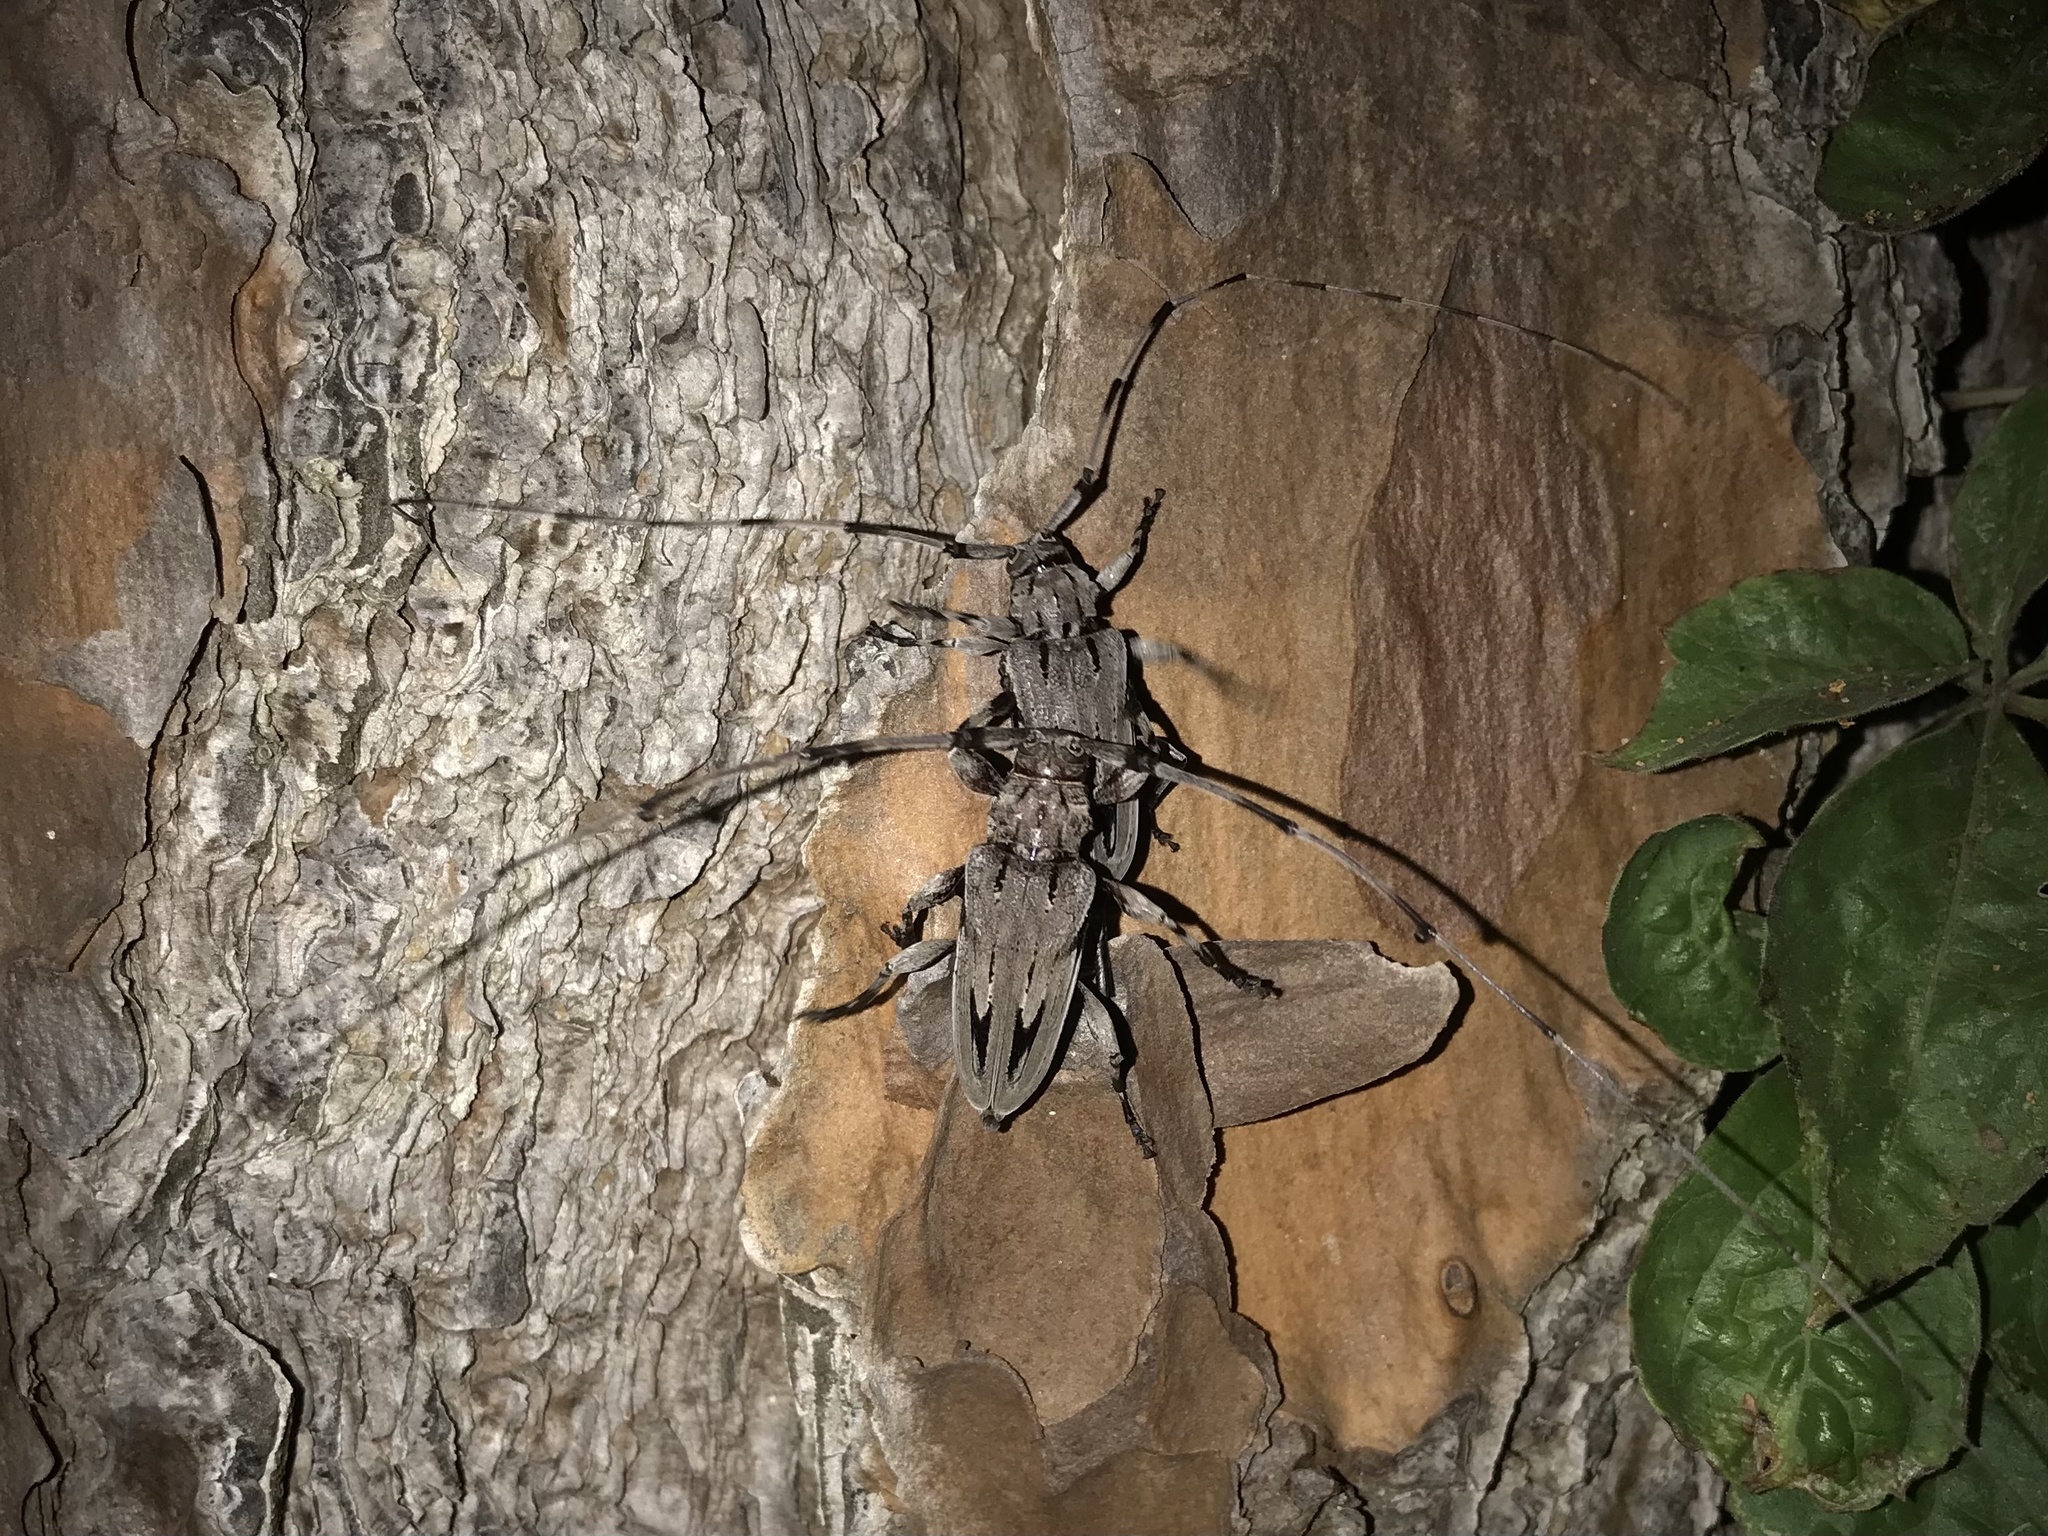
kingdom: Animalia
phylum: Arthropoda
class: Insecta
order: Coleoptera
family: Cerambycidae
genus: Acanthocinus
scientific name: Acanthocinus nodosus
